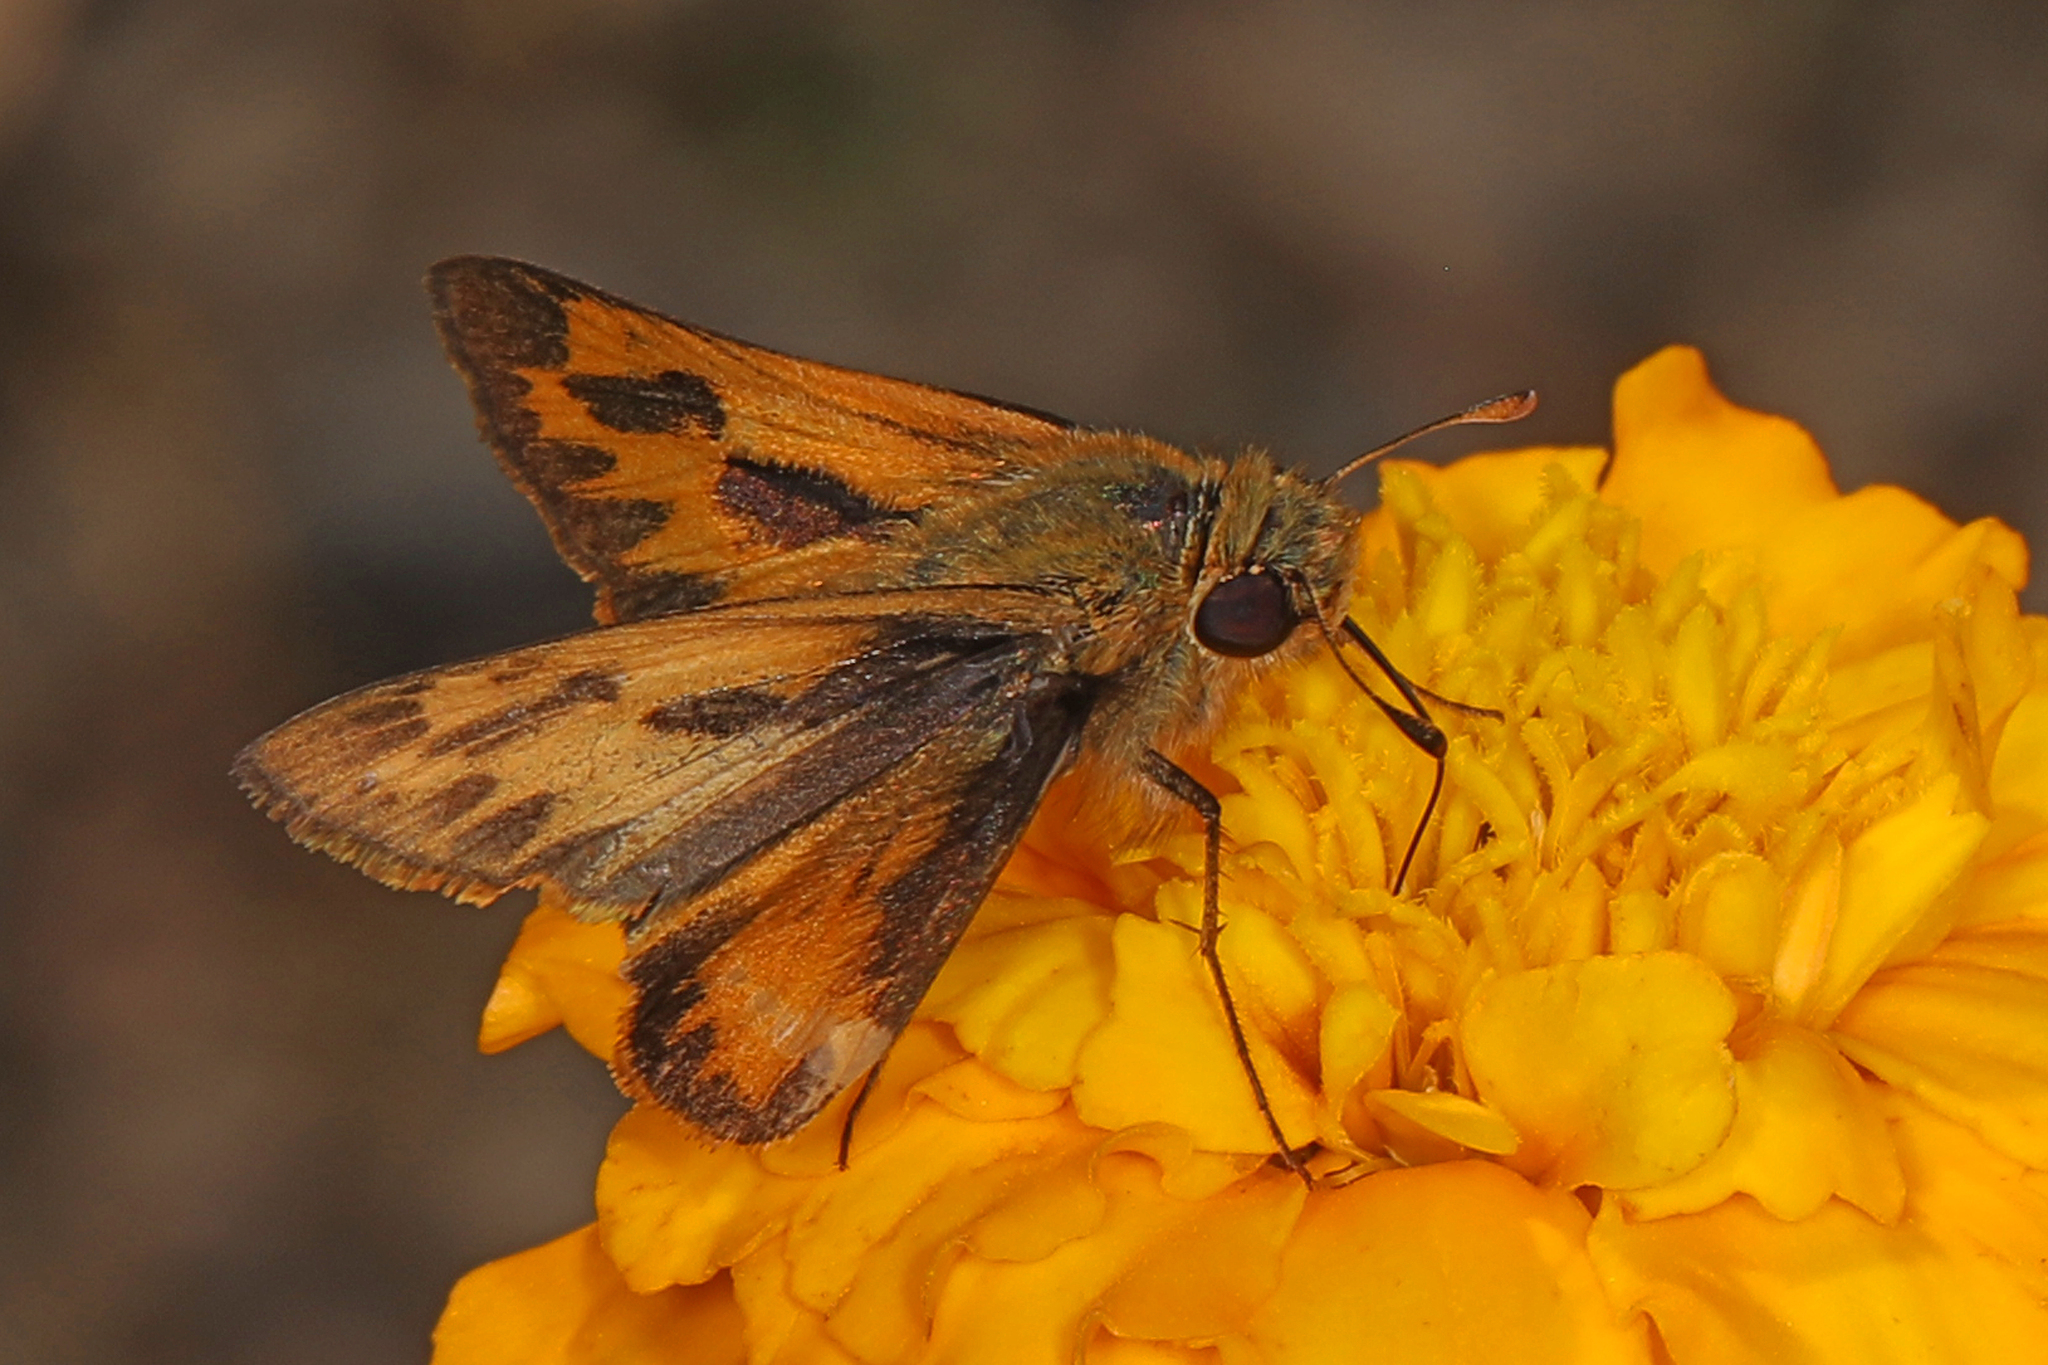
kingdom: Animalia
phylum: Arthropoda
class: Insecta
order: Lepidoptera
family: Hesperiidae
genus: Hylephila
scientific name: Hylephila phyleus
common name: Fiery skipper
